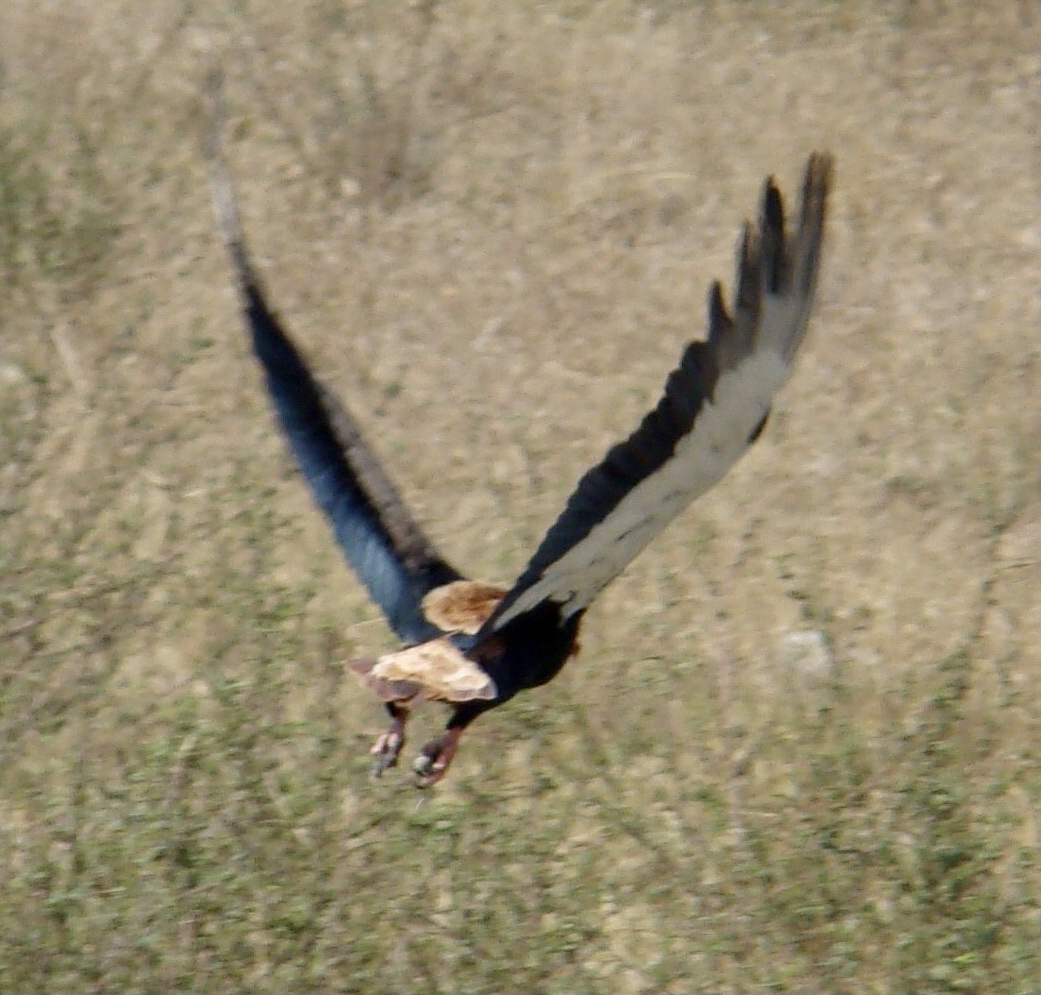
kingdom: Animalia
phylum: Chordata
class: Aves
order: Accipitriformes
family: Accipitridae
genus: Terathopius
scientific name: Terathopius ecaudatus
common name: Bateleur
